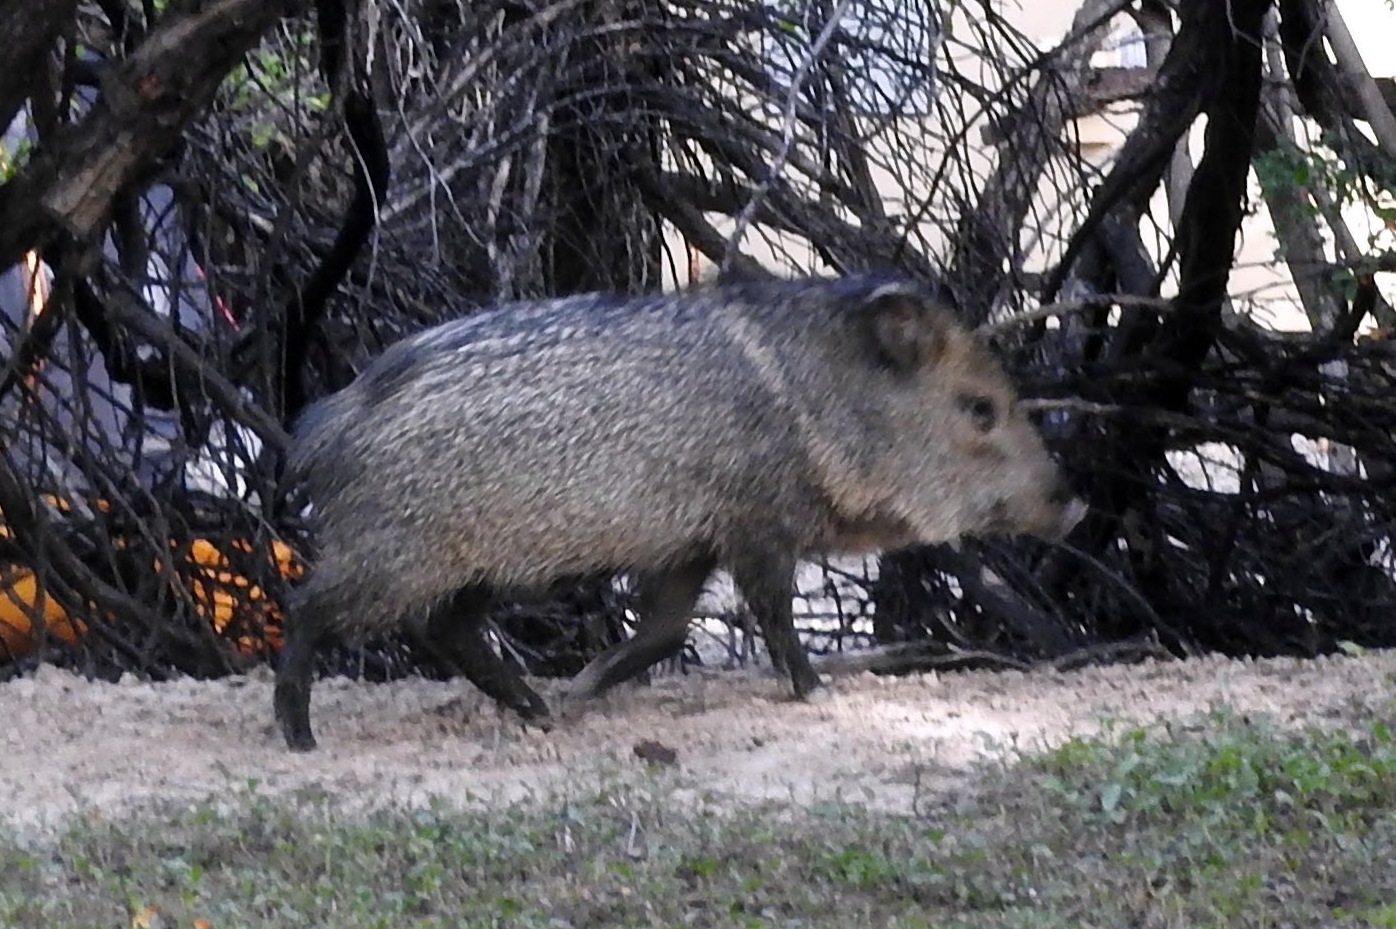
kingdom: Animalia
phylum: Chordata
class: Mammalia
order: Artiodactyla
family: Tayassuidae
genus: Pecari
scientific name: Pecari tajacu
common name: Collared peccary
